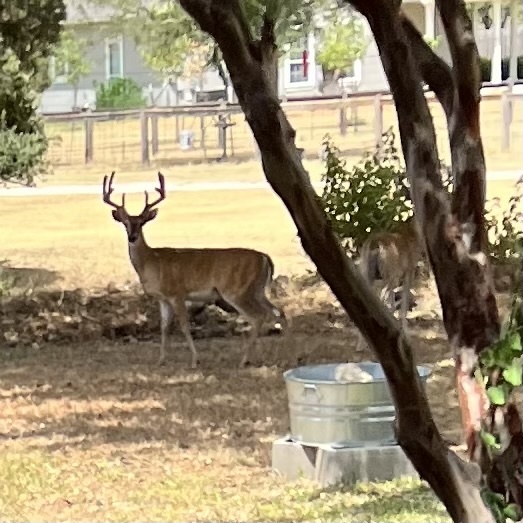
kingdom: Animalia
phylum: Chordata
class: Mammalia
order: Artiodactyla
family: Cervidae
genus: Odocoileus
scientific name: Odocoileus virginianus
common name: White-tailed deer
